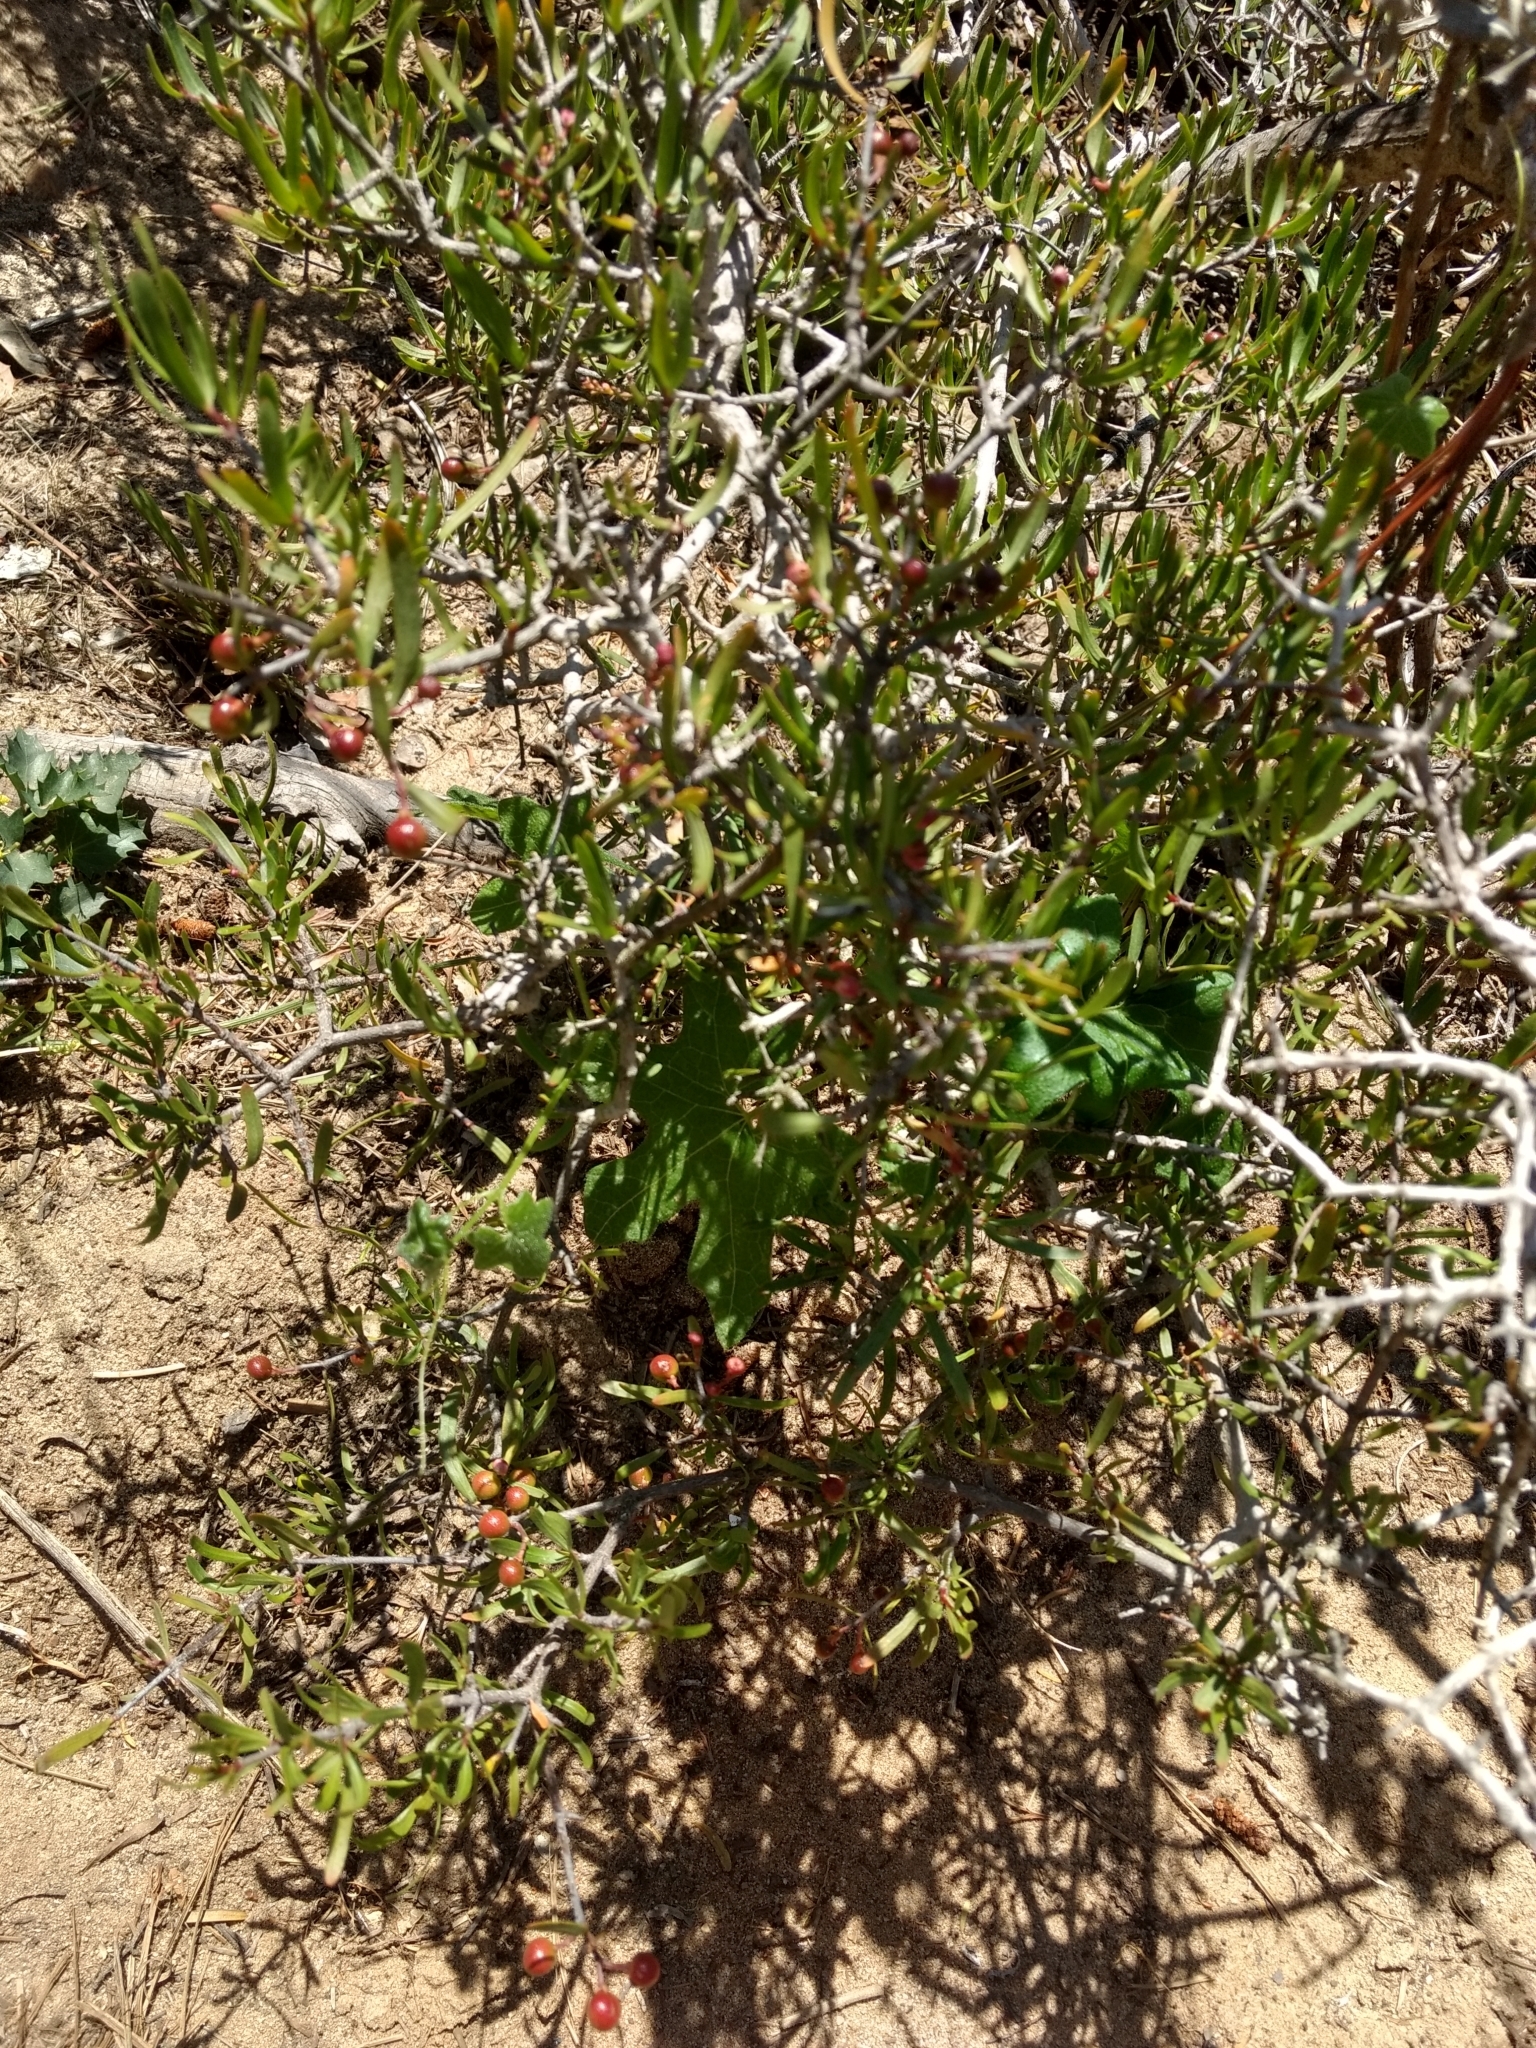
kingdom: Plantae
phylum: Tracheophyta
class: Magnoliopsida
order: Sapindales
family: Rutaceae
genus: Cneoridium
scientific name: Cneoridium dumosum
